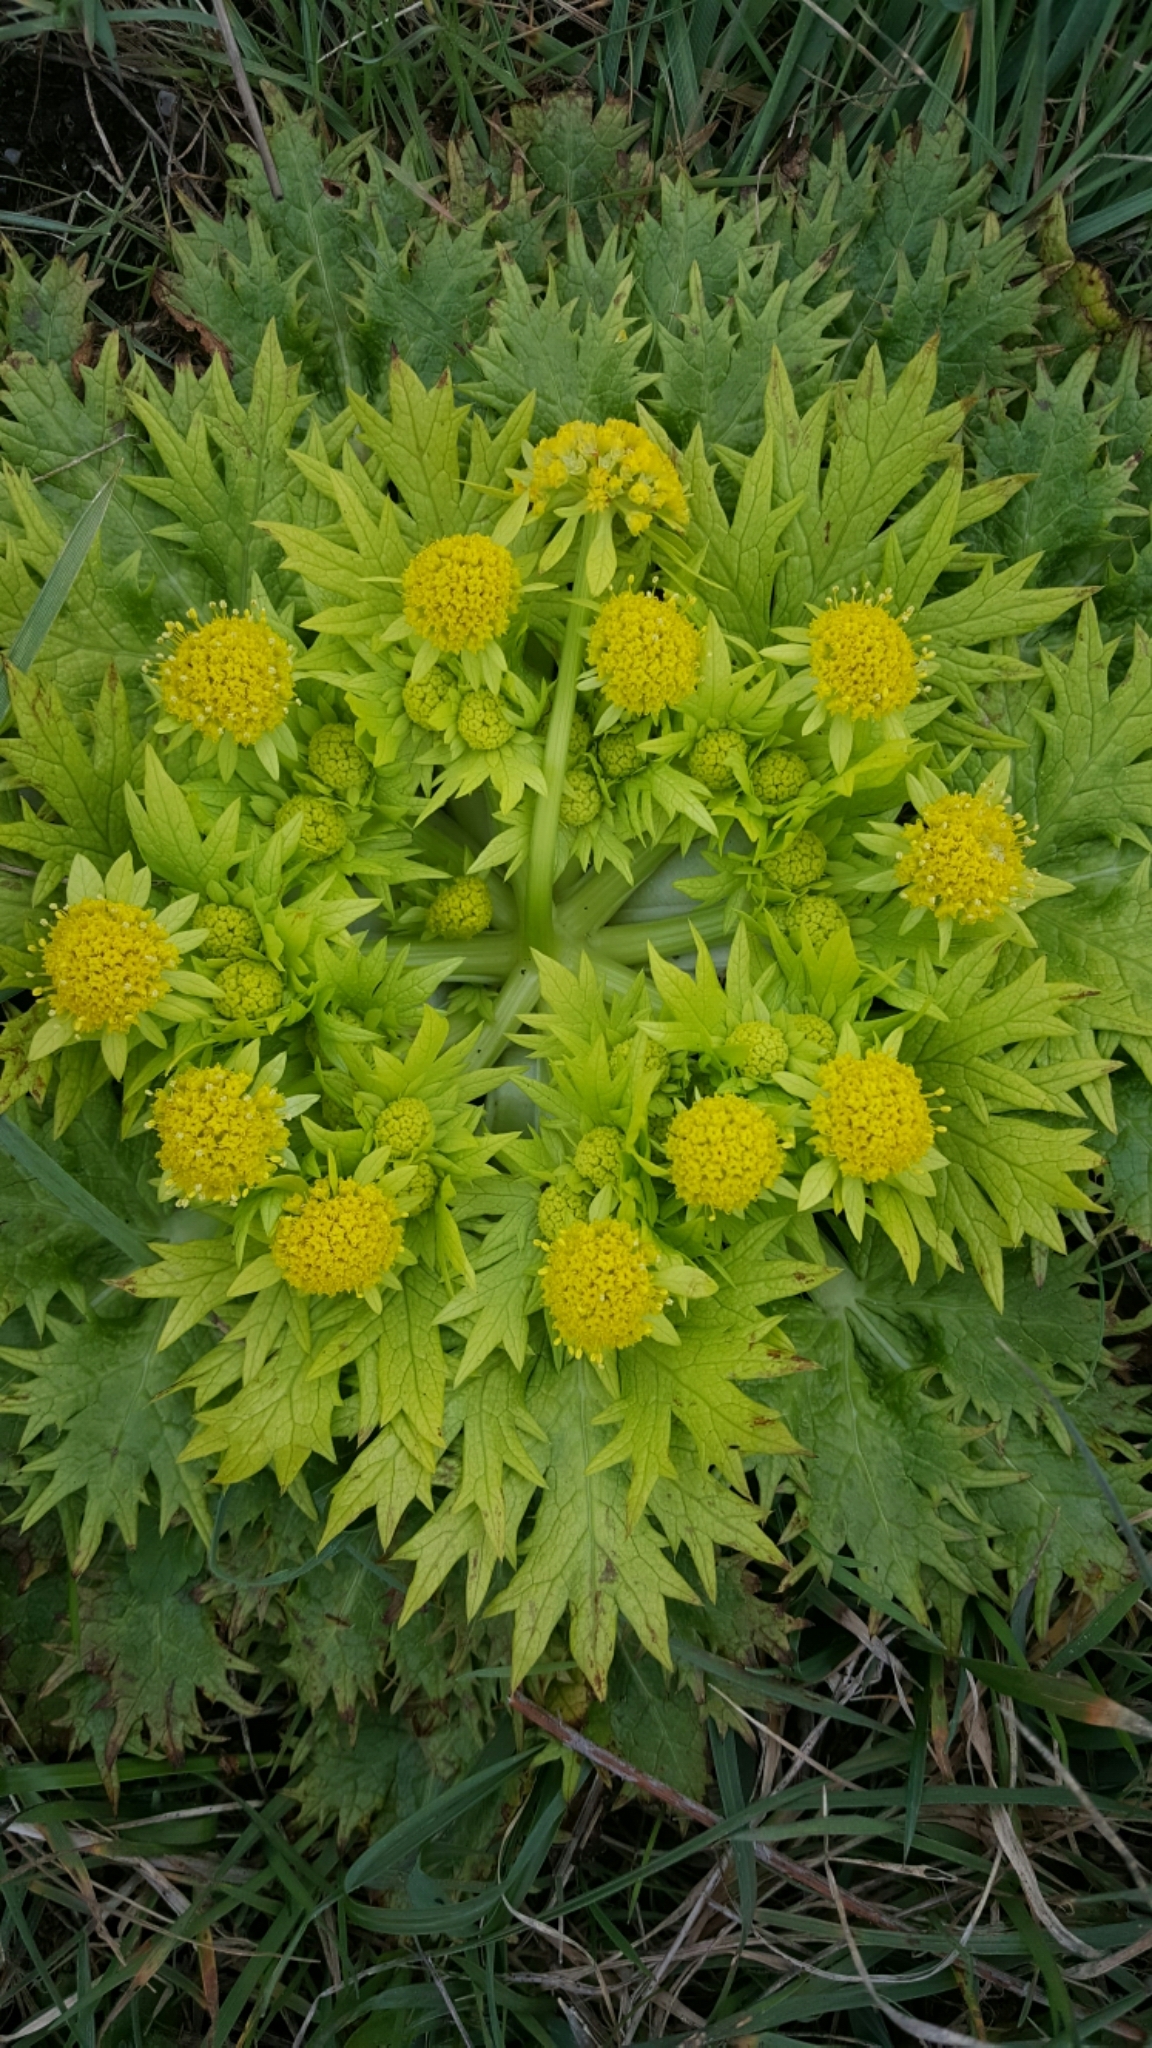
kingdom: Plantae
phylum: Tracheophyta
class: Magnoliopsida
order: Apiales
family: Apiaceae
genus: Sanicula
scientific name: Sanicula arctopoides
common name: Footsteps-of-spring
